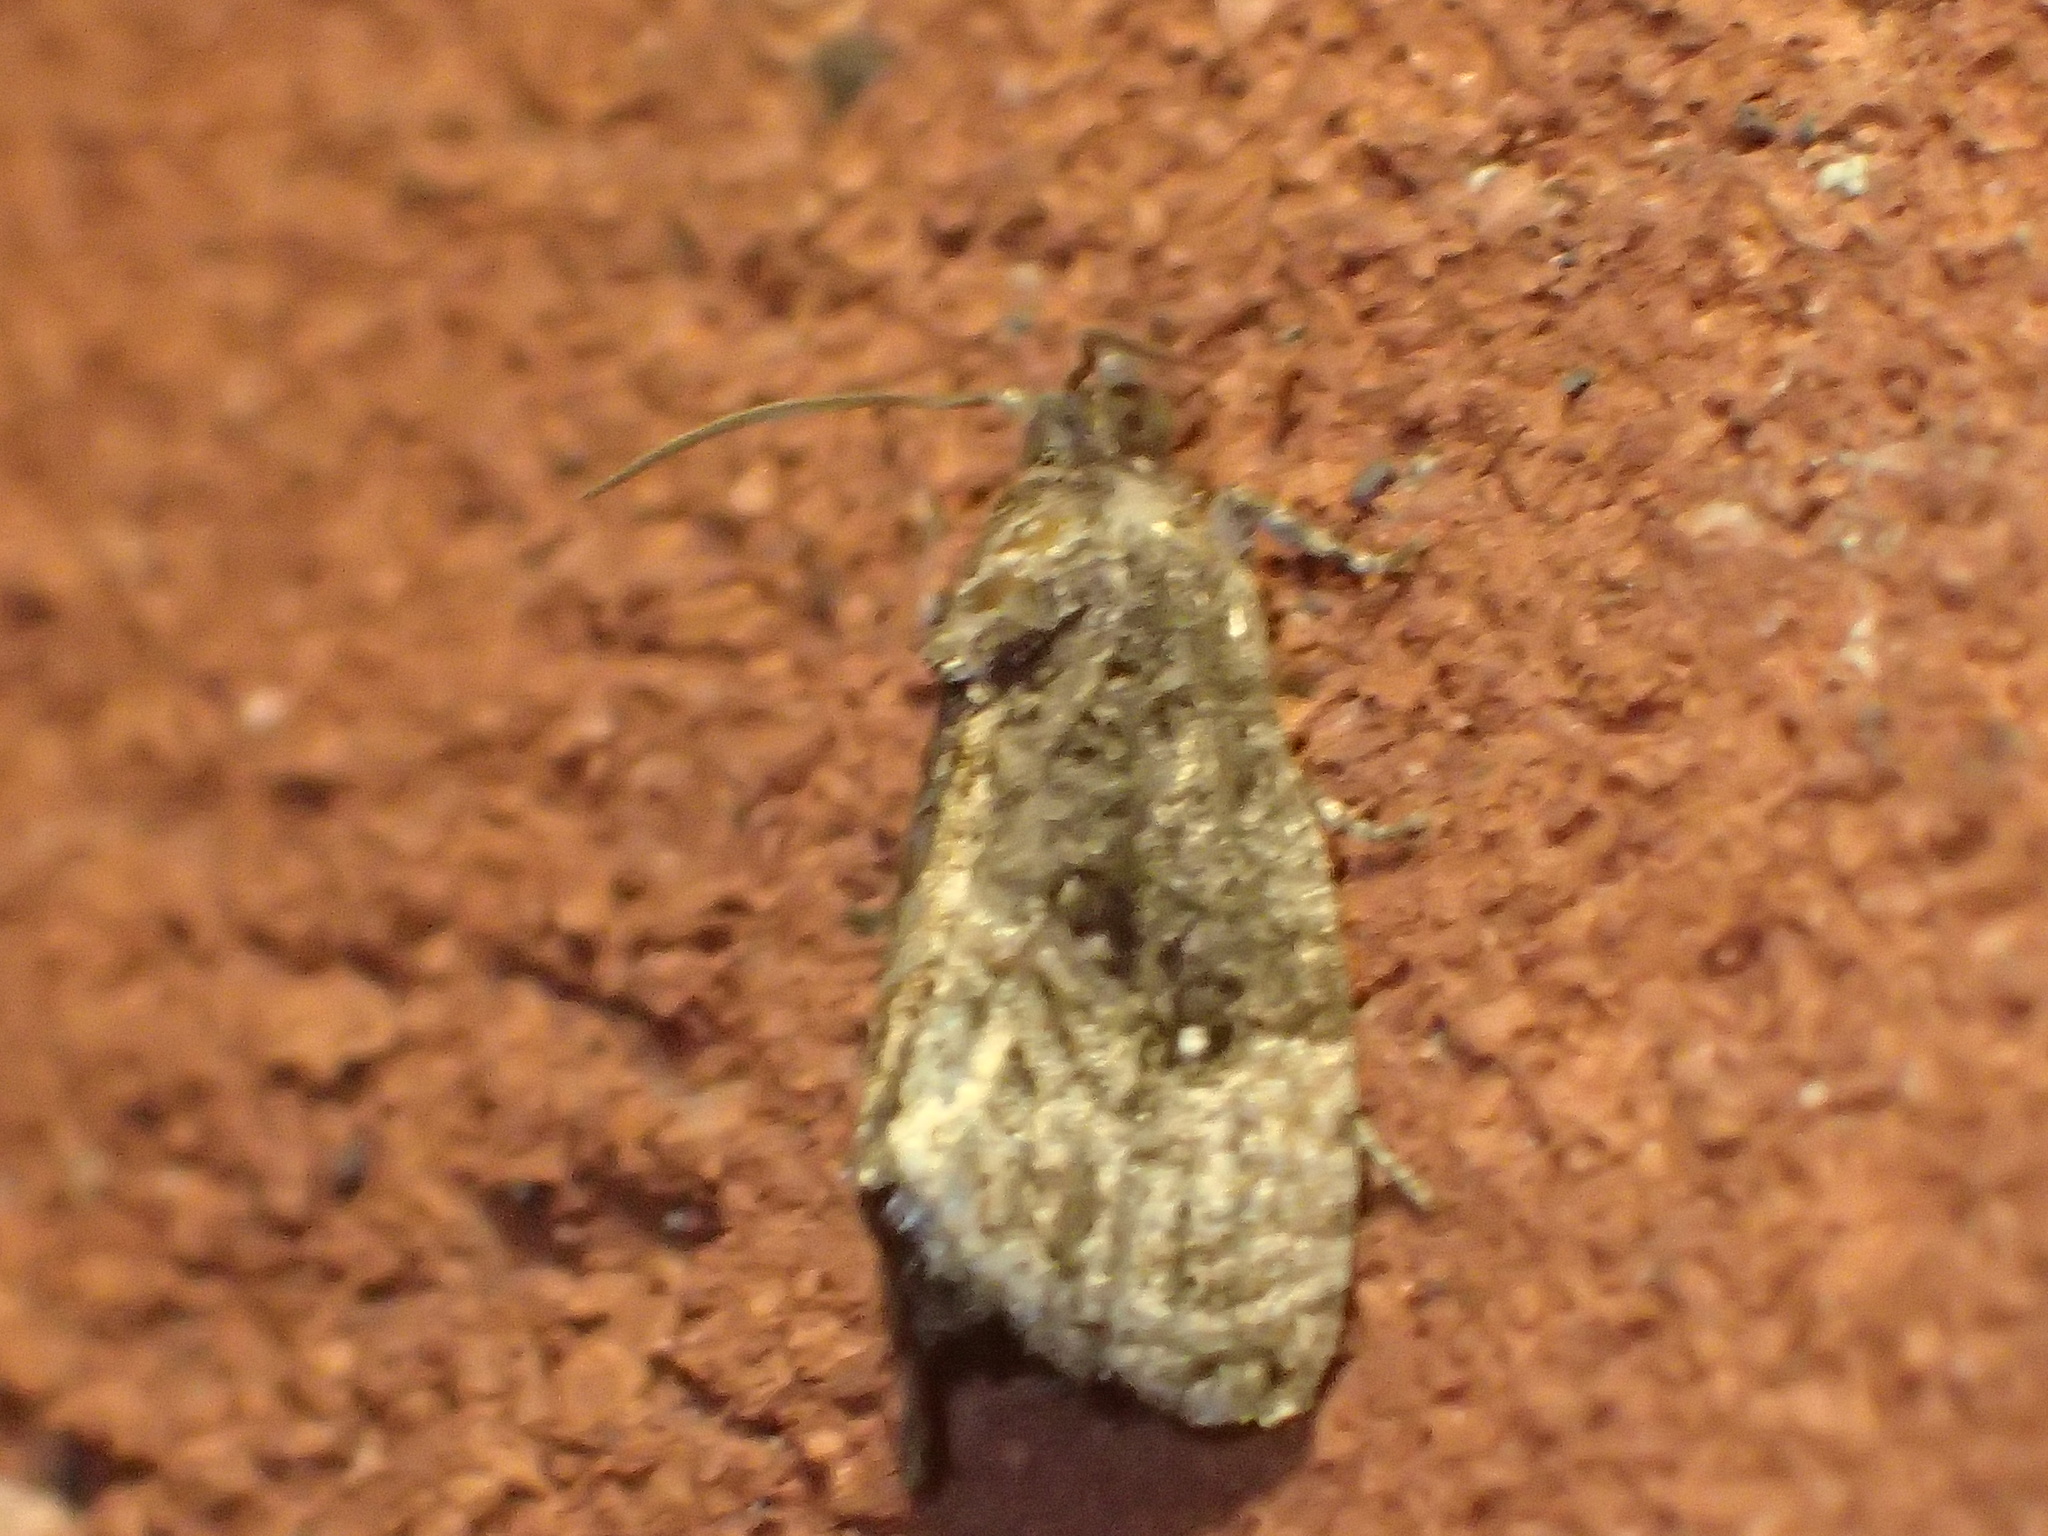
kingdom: Animalia
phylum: Arthropoda
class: Insecta
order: Lepidoptera
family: Tortricidae
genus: Gymnandrosoma
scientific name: Gymnandrosoma punctidiscanum
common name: Dotted ecdytolopha moth
